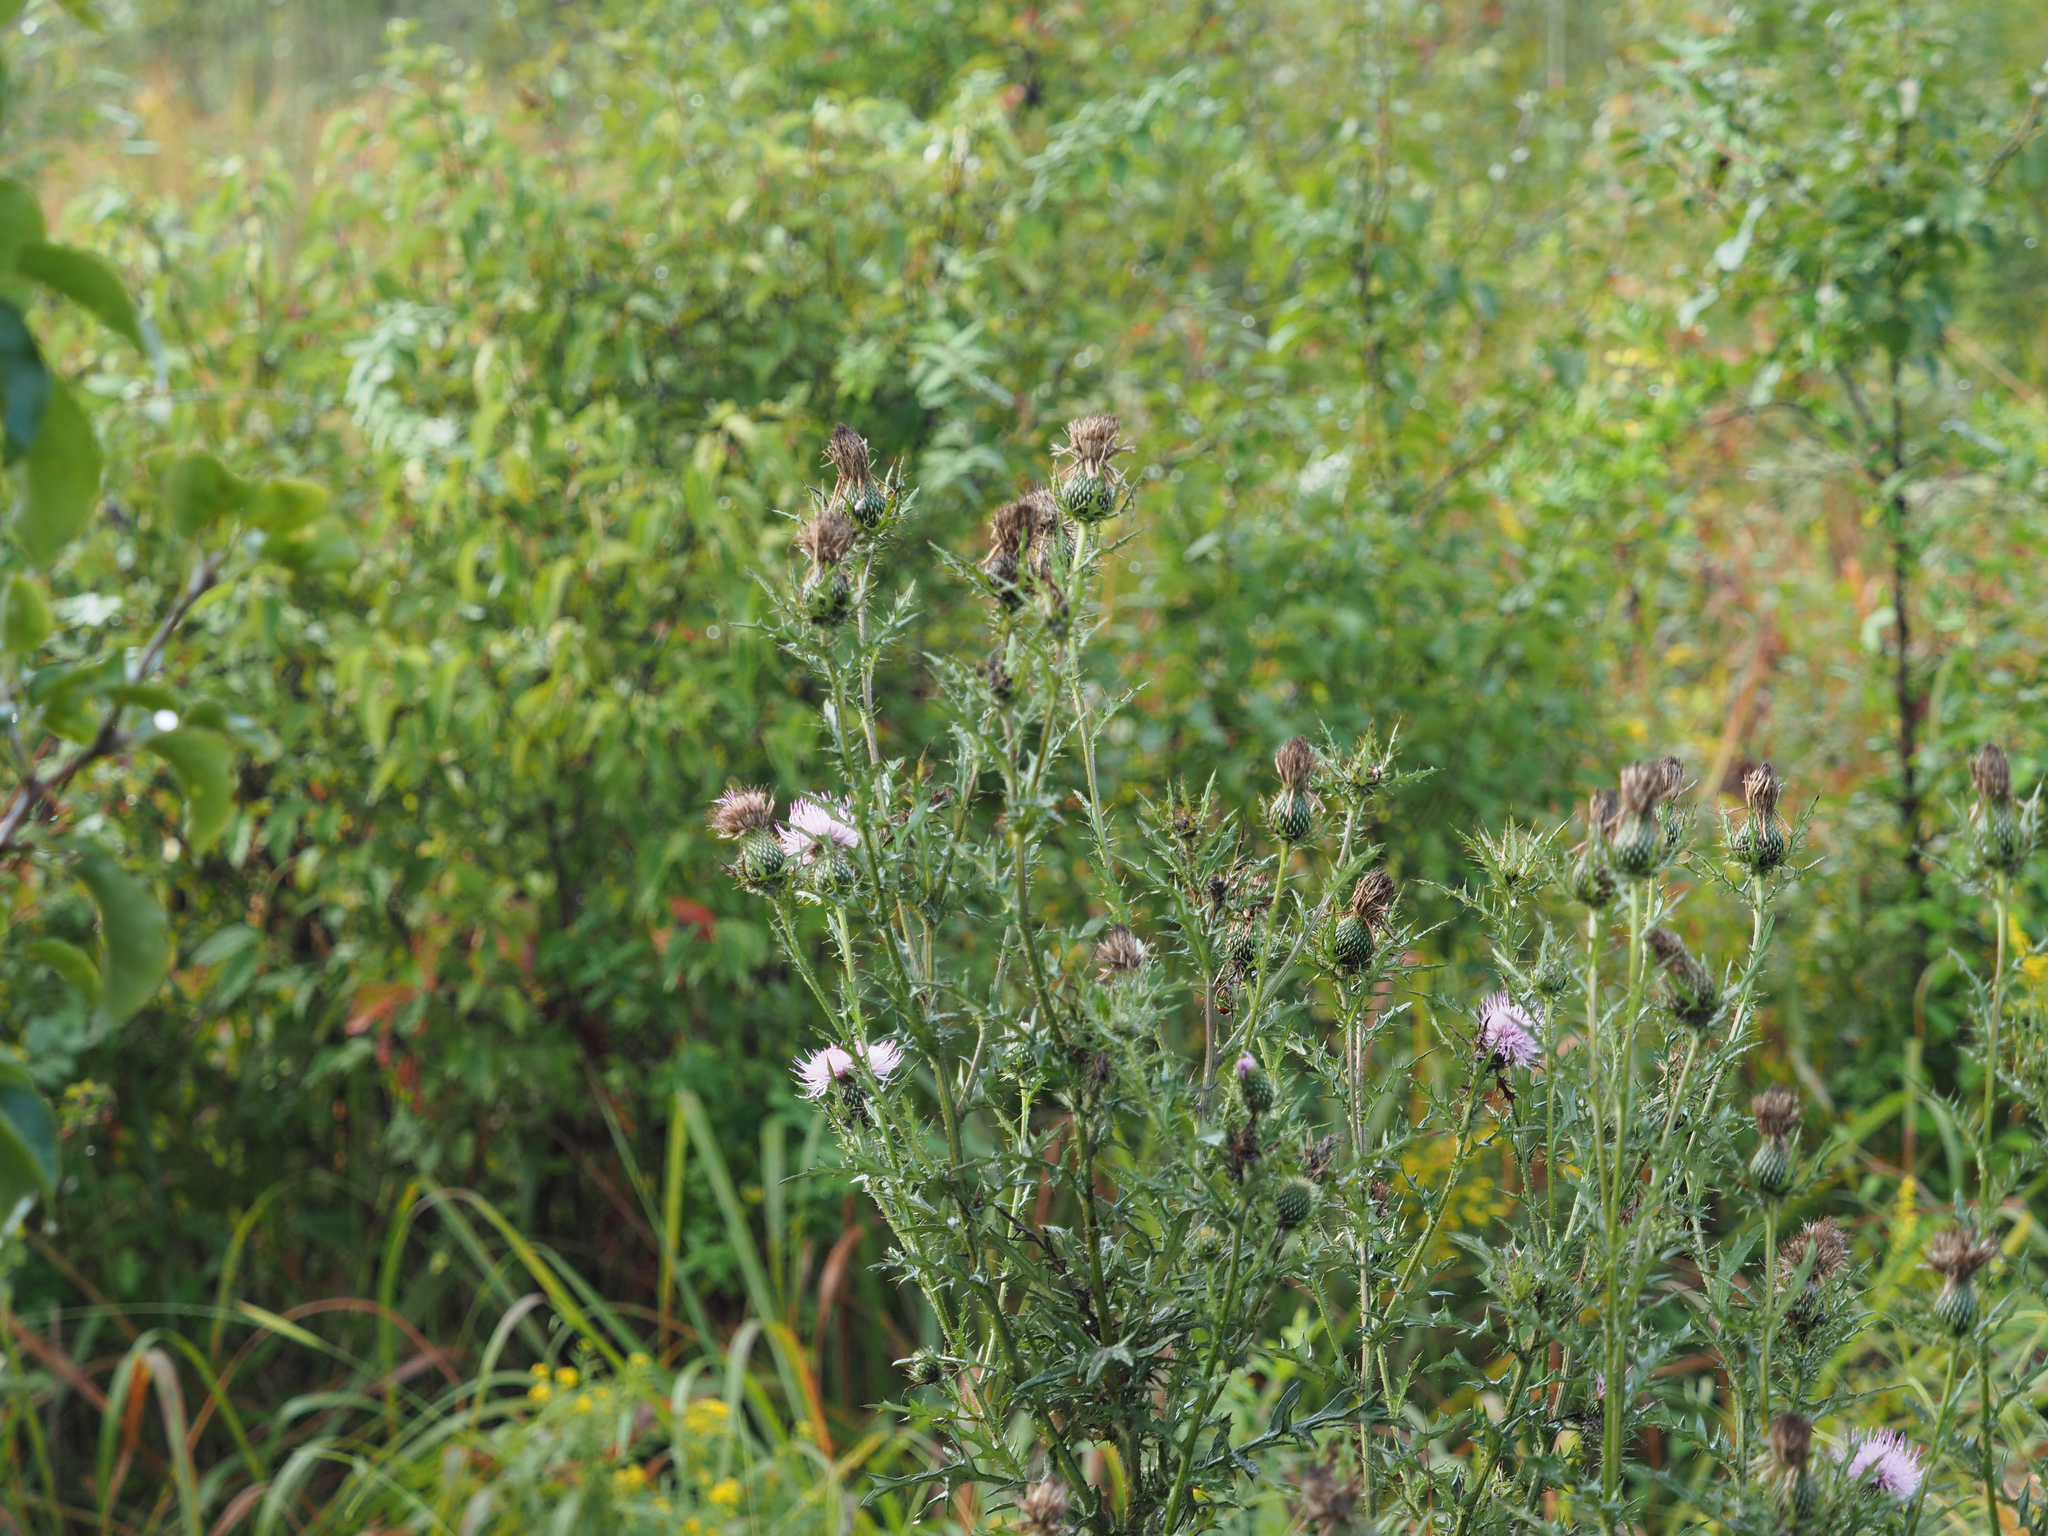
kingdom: Plantae
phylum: Tracheophyta
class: Magnoliopsida
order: Asterales
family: Asteraceae
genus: Cirsium
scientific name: Cirsium discolor
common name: Field thistle
